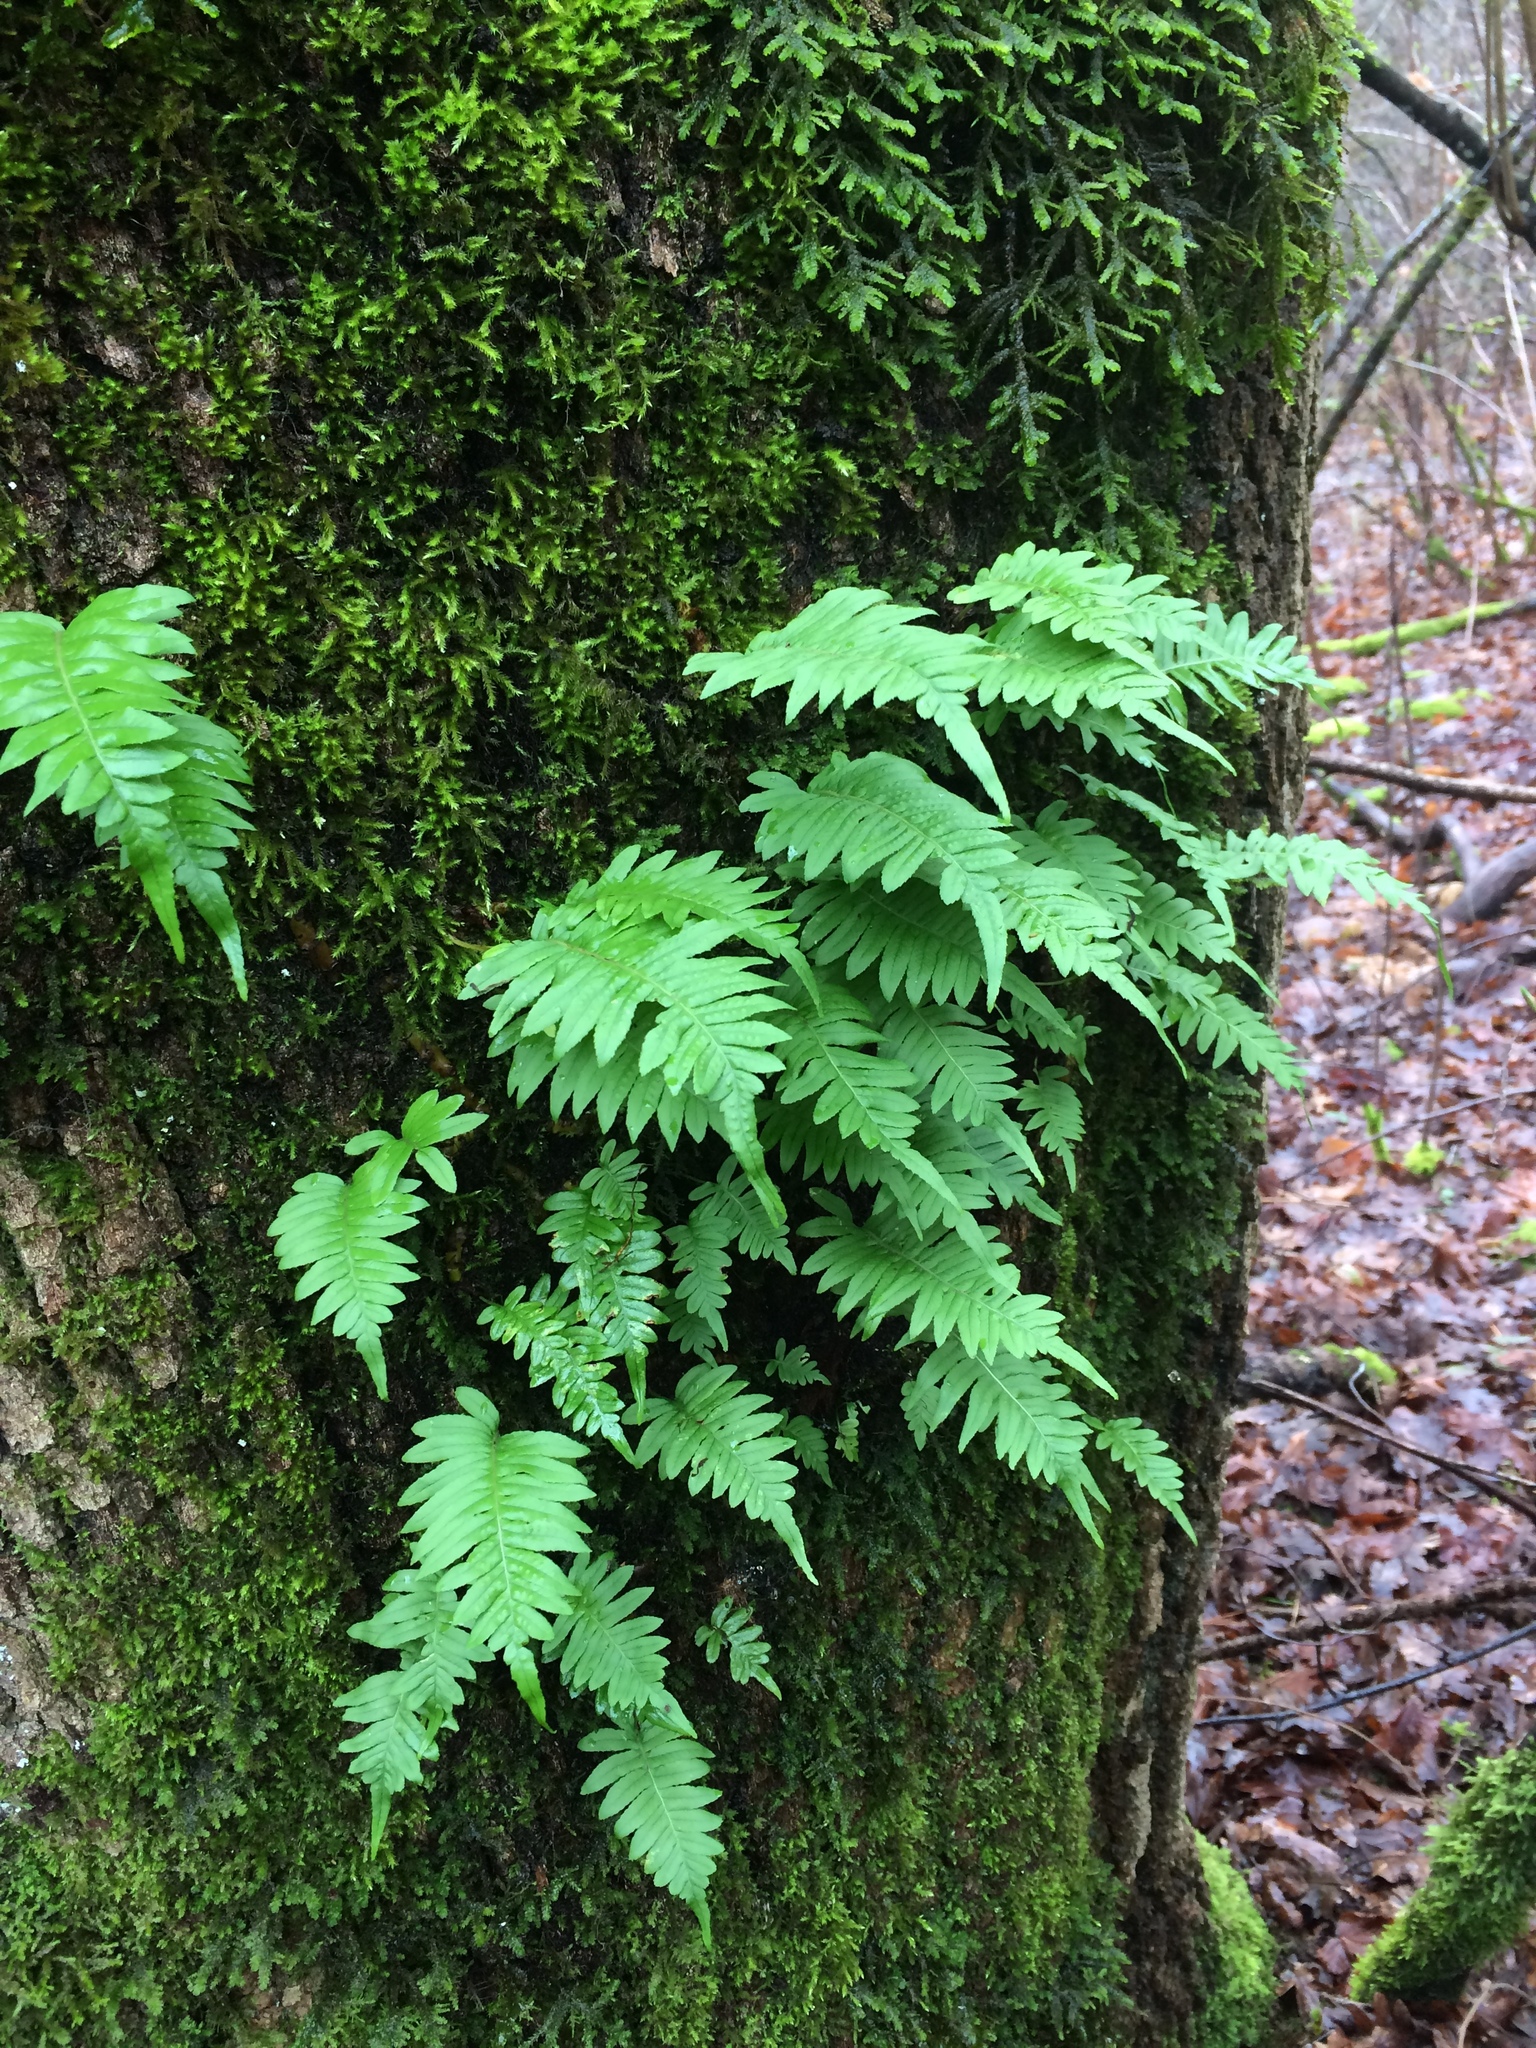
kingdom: Plantae
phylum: Tracheophyta
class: Polypodiopsida
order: Polypodiales
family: Polypodiaceae
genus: Polypodium
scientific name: Polypodium glycyrrhiza
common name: Licorice fern
